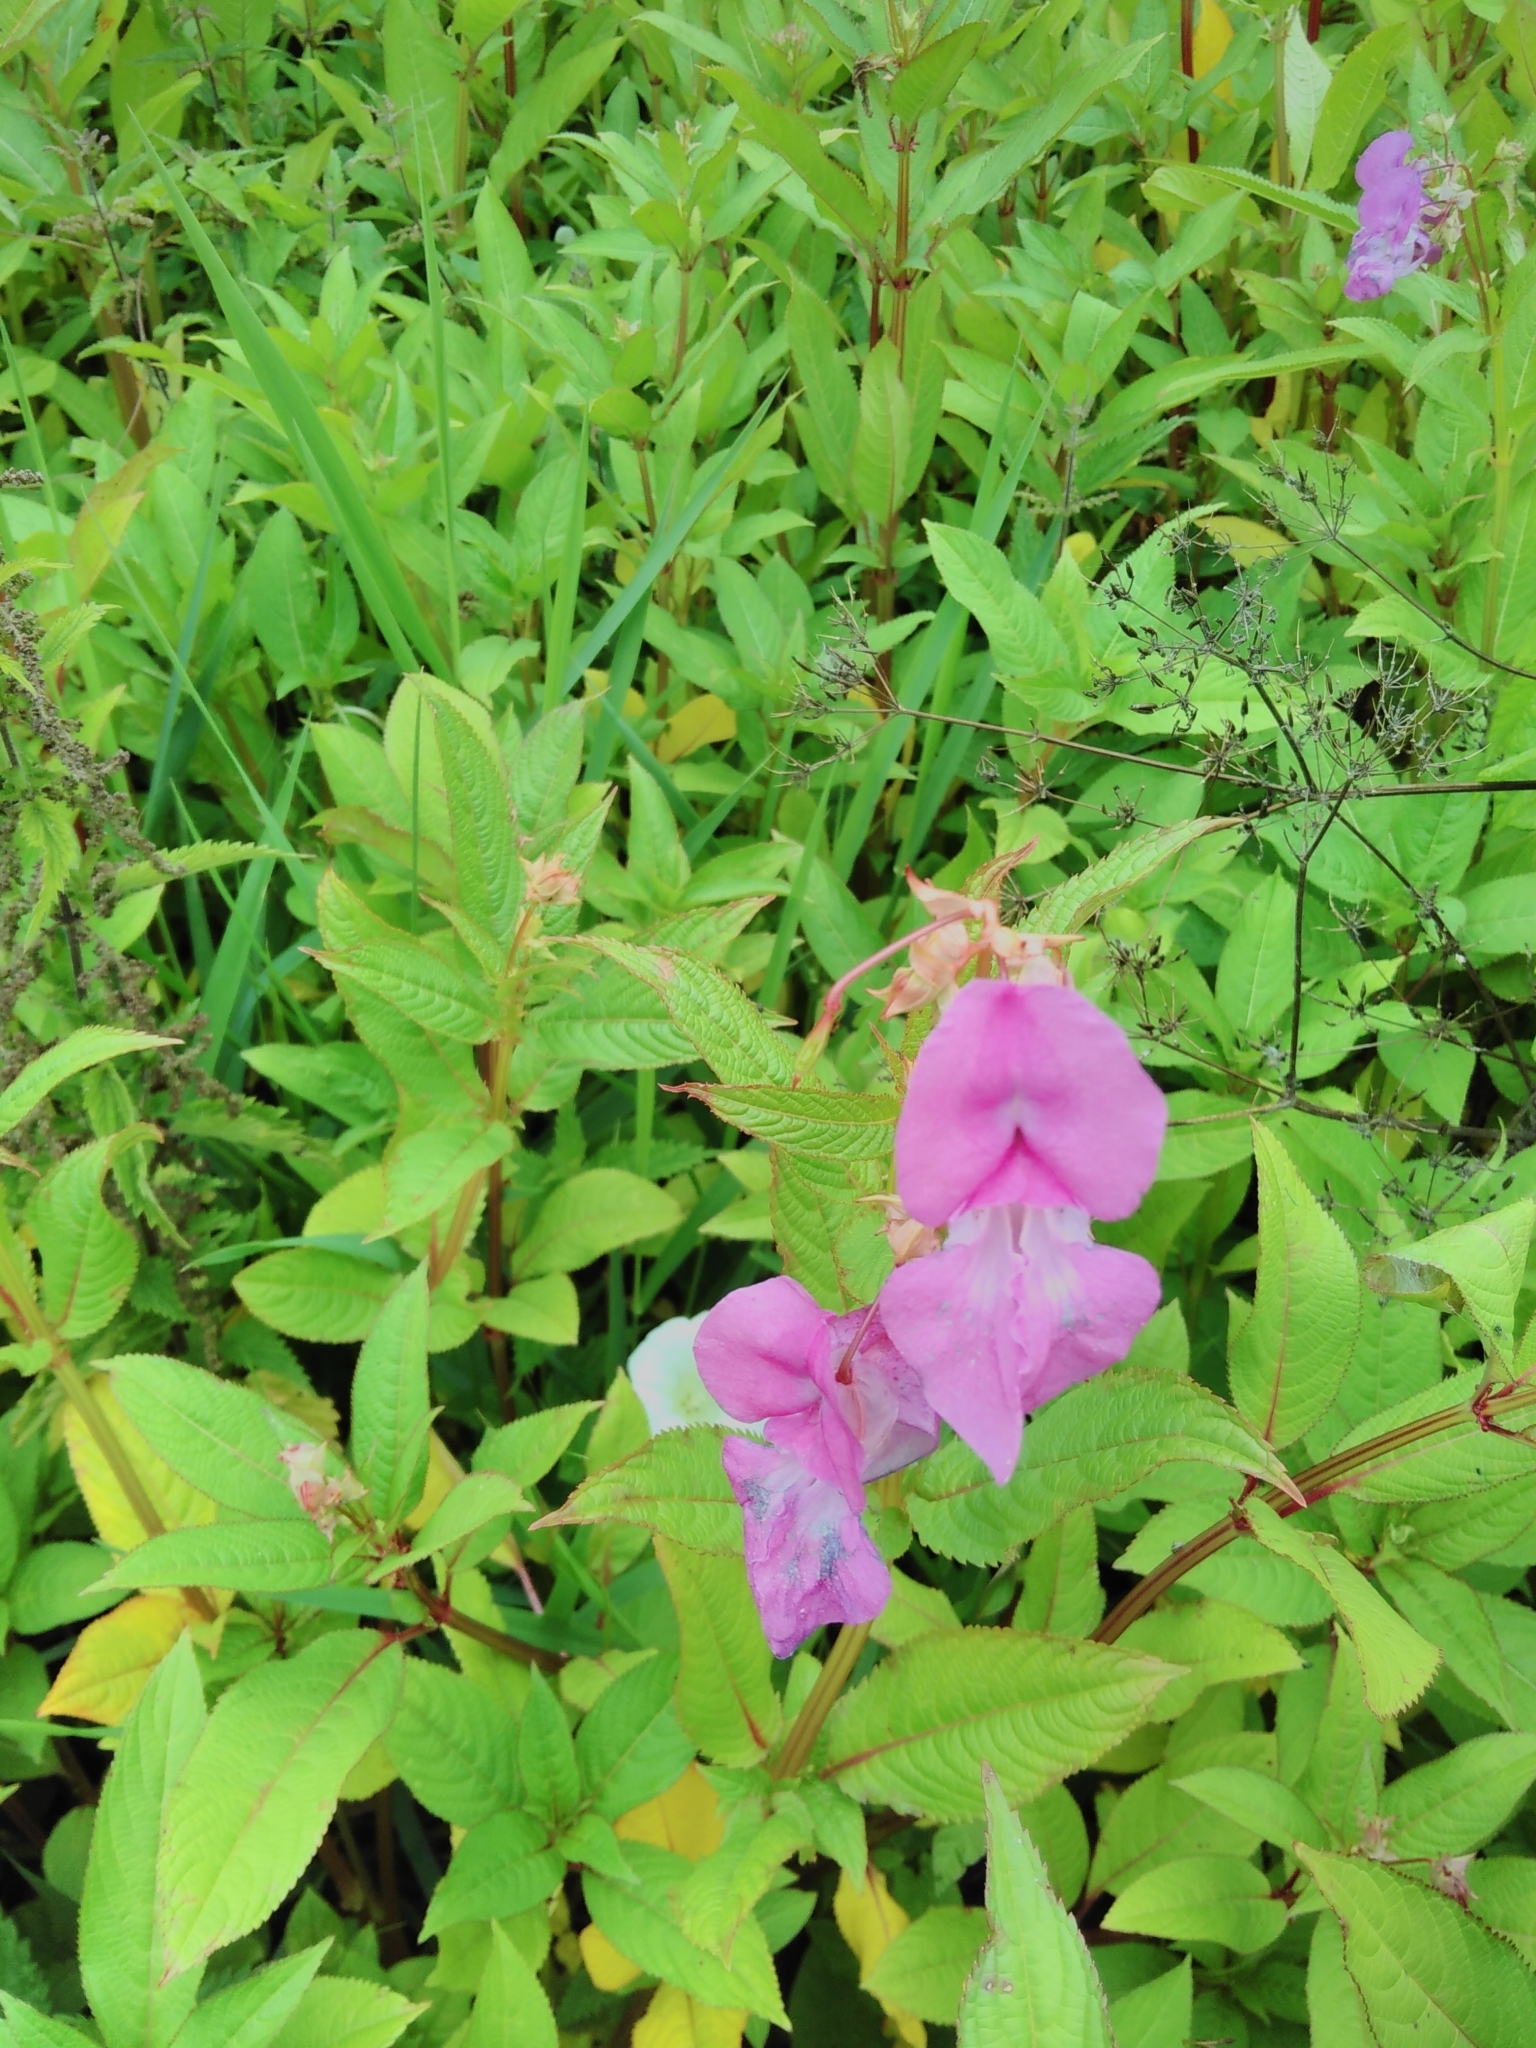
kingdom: Plantae
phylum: Tracheophyta
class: Magnoliopsida
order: Ericales
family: Balsaminaceae
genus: Impatiens
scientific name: Impatiens glandulifera
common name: Himalayan balsam
